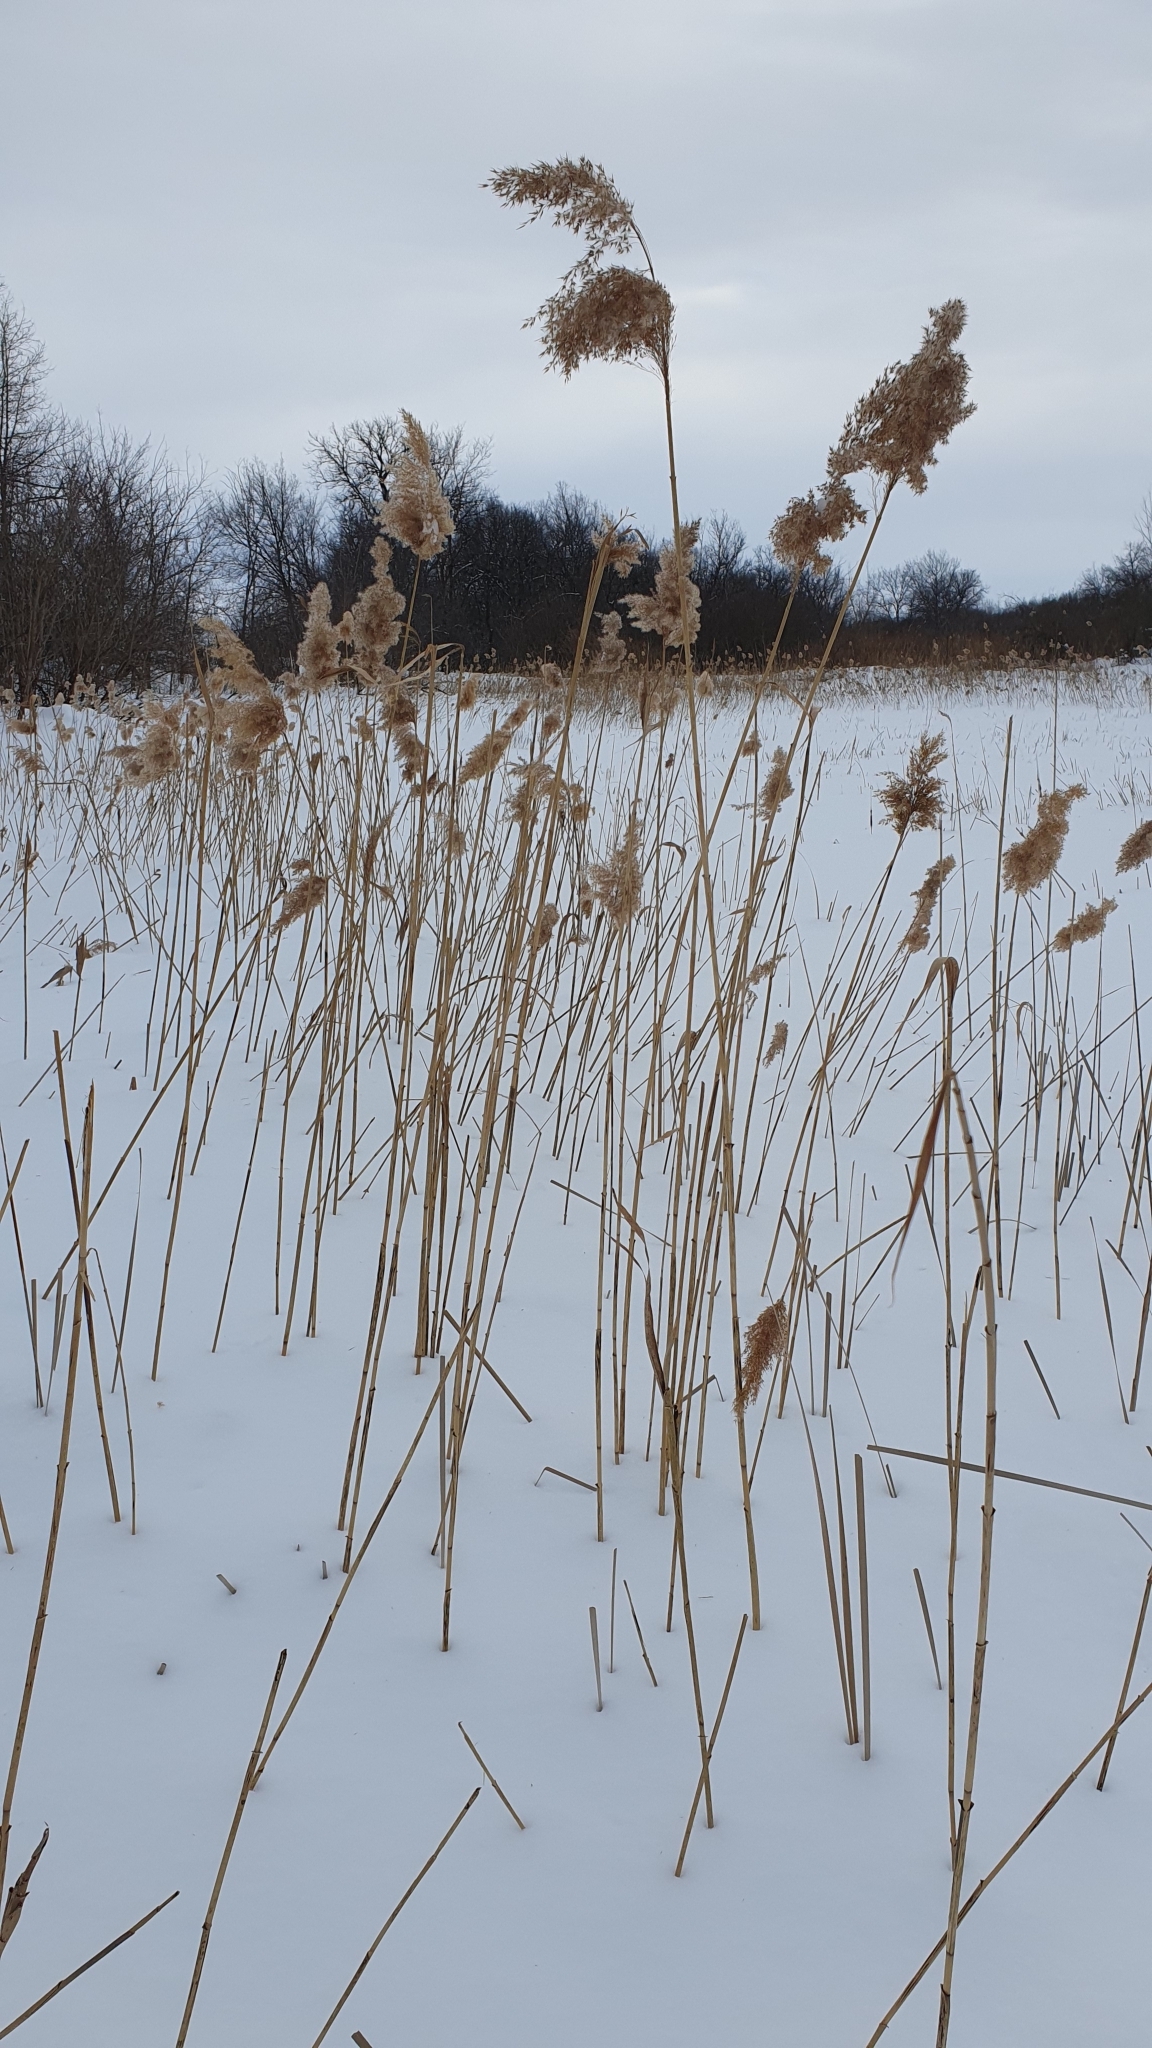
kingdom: Plantae
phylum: Tracheophyta
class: Liliopsida
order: Poales
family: Poaceae
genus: Phragmites
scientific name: Phragmites australis
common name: Common reed
